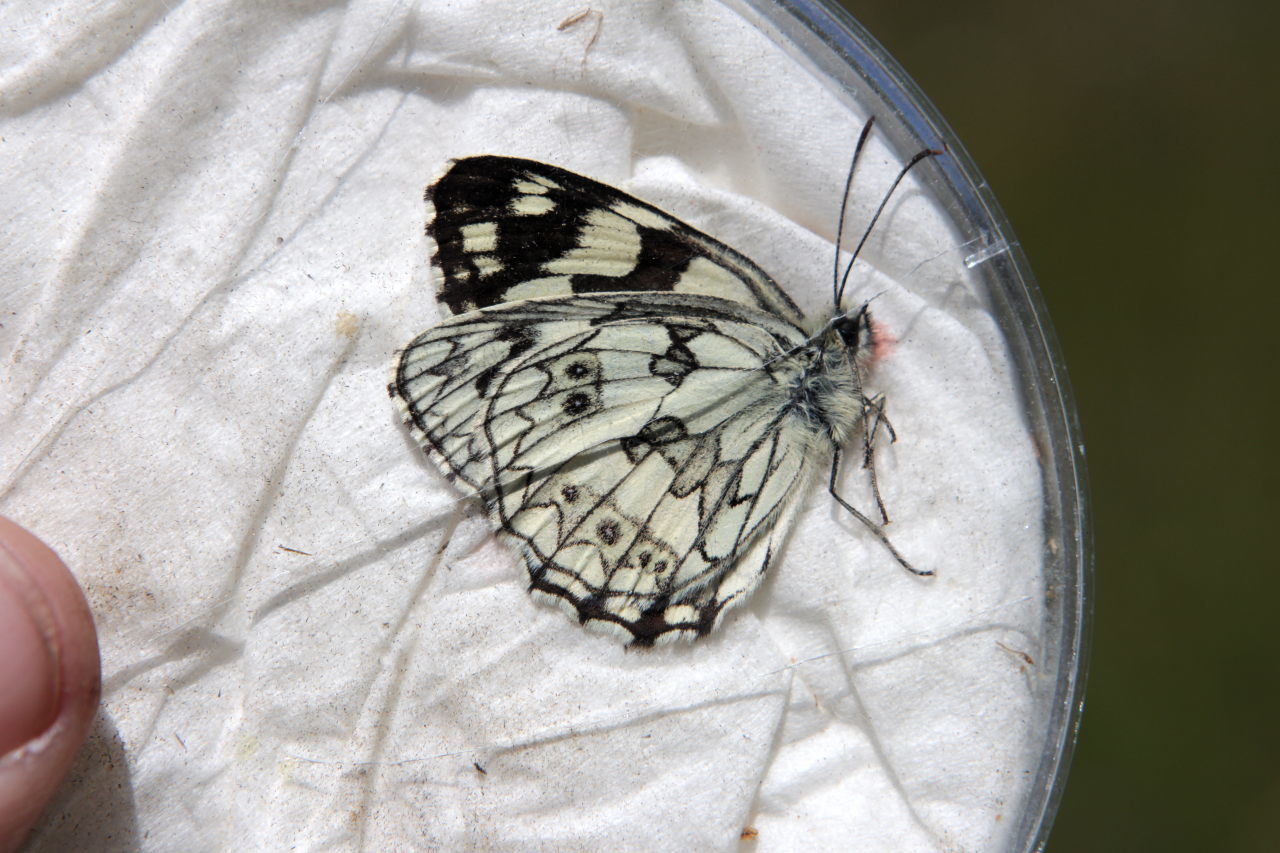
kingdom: Animalia
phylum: Arthropoda
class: Insecta
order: Lepidoptera
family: Nymphalidae
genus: Melanargia
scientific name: Melanargia galathea
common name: Marbled white
